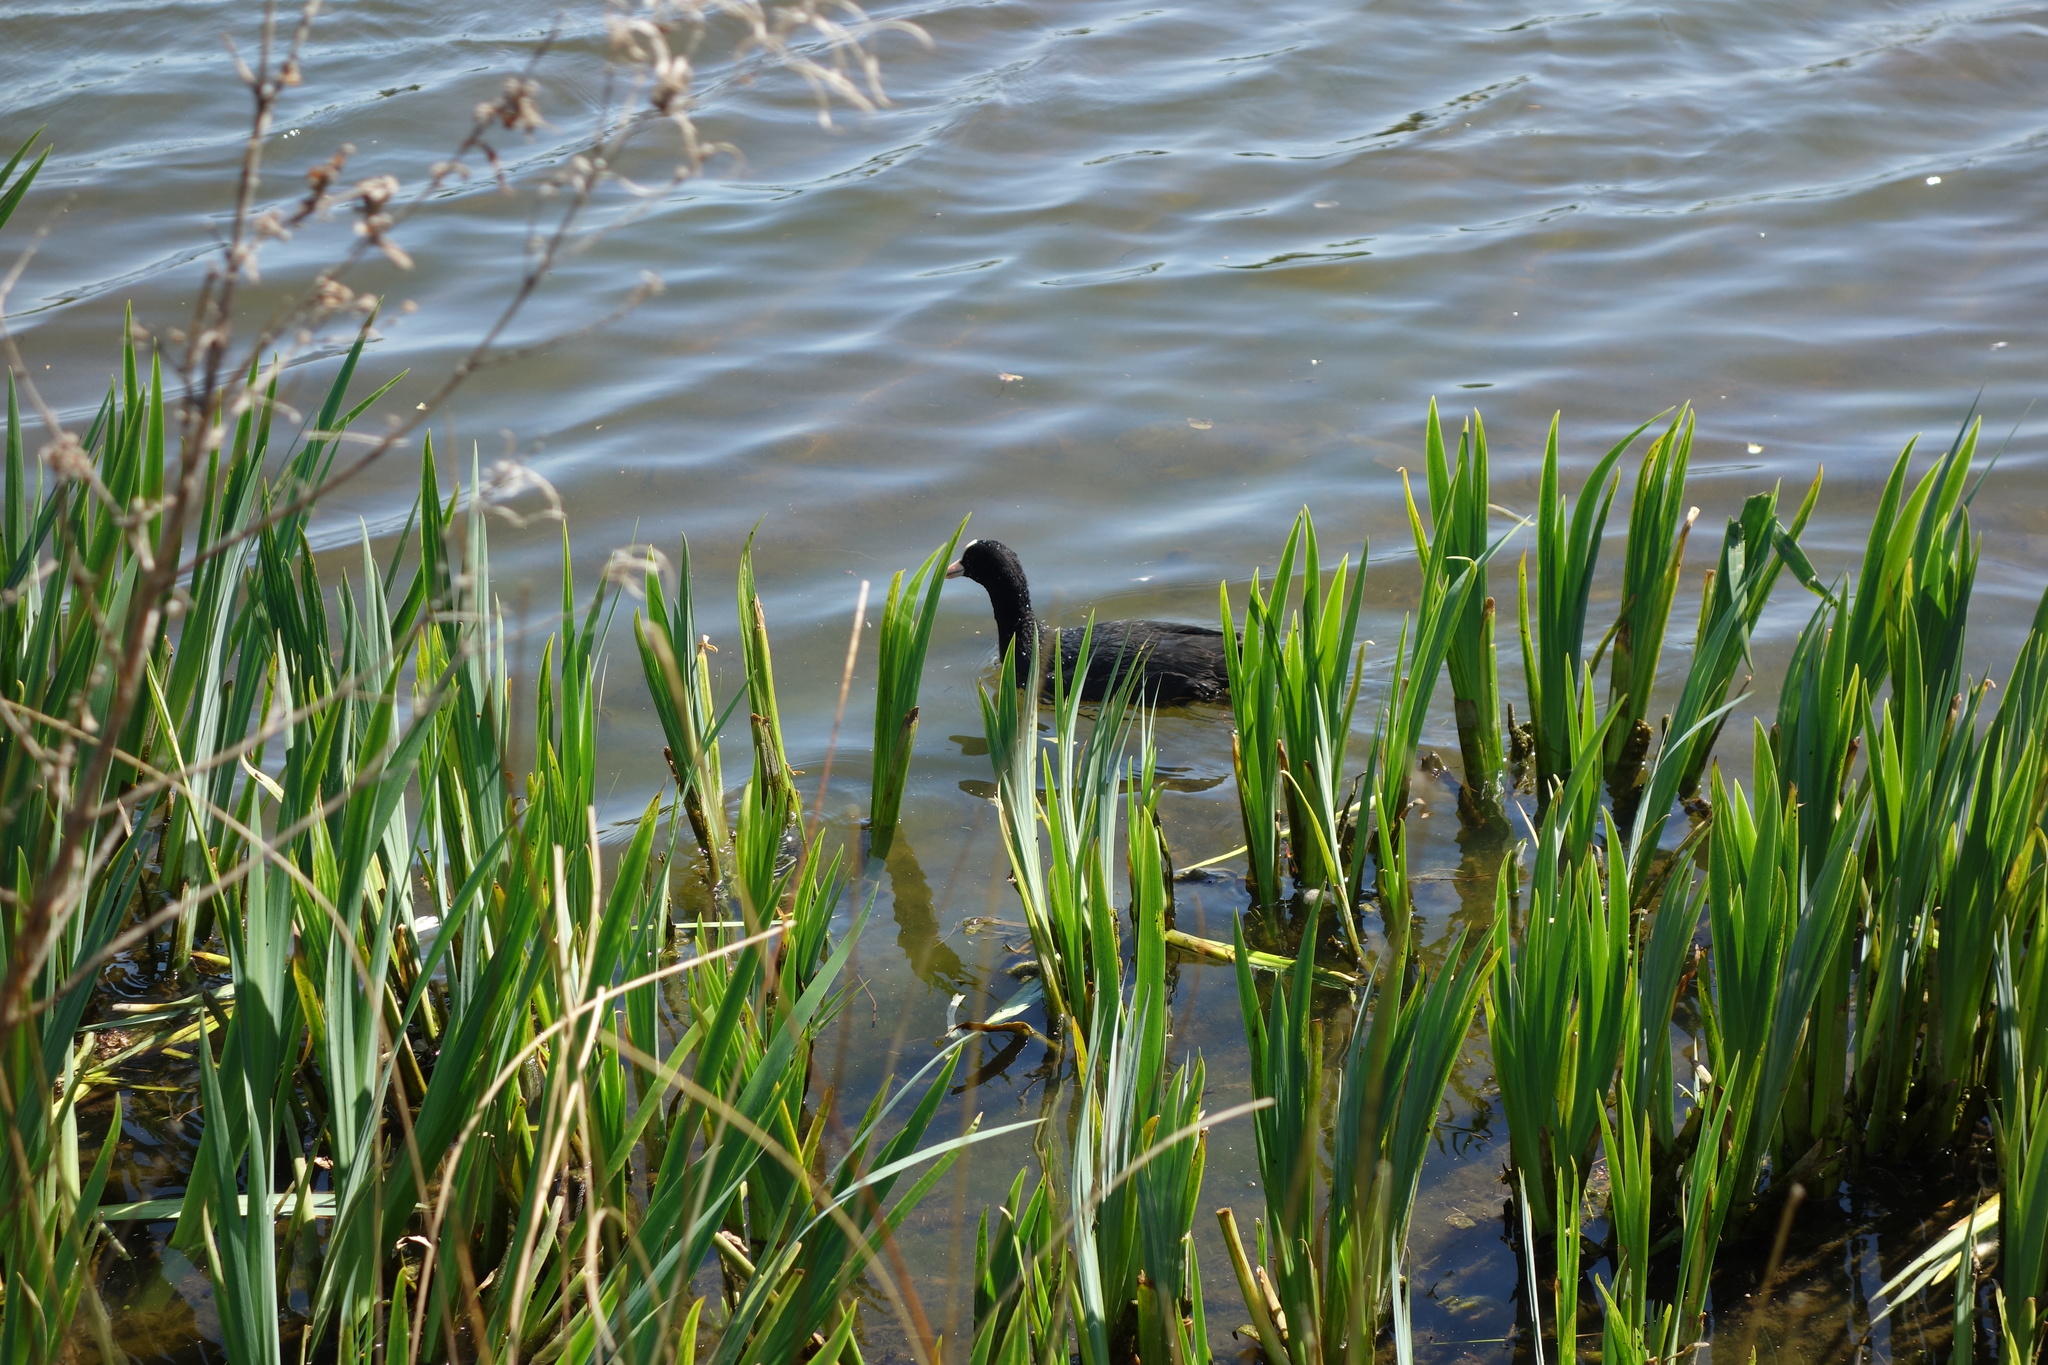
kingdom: Animalia
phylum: Chordata
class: Aves
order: Gruiformes
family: Rallidae
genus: Fulica
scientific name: Fulica atra
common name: Eurasian coot
